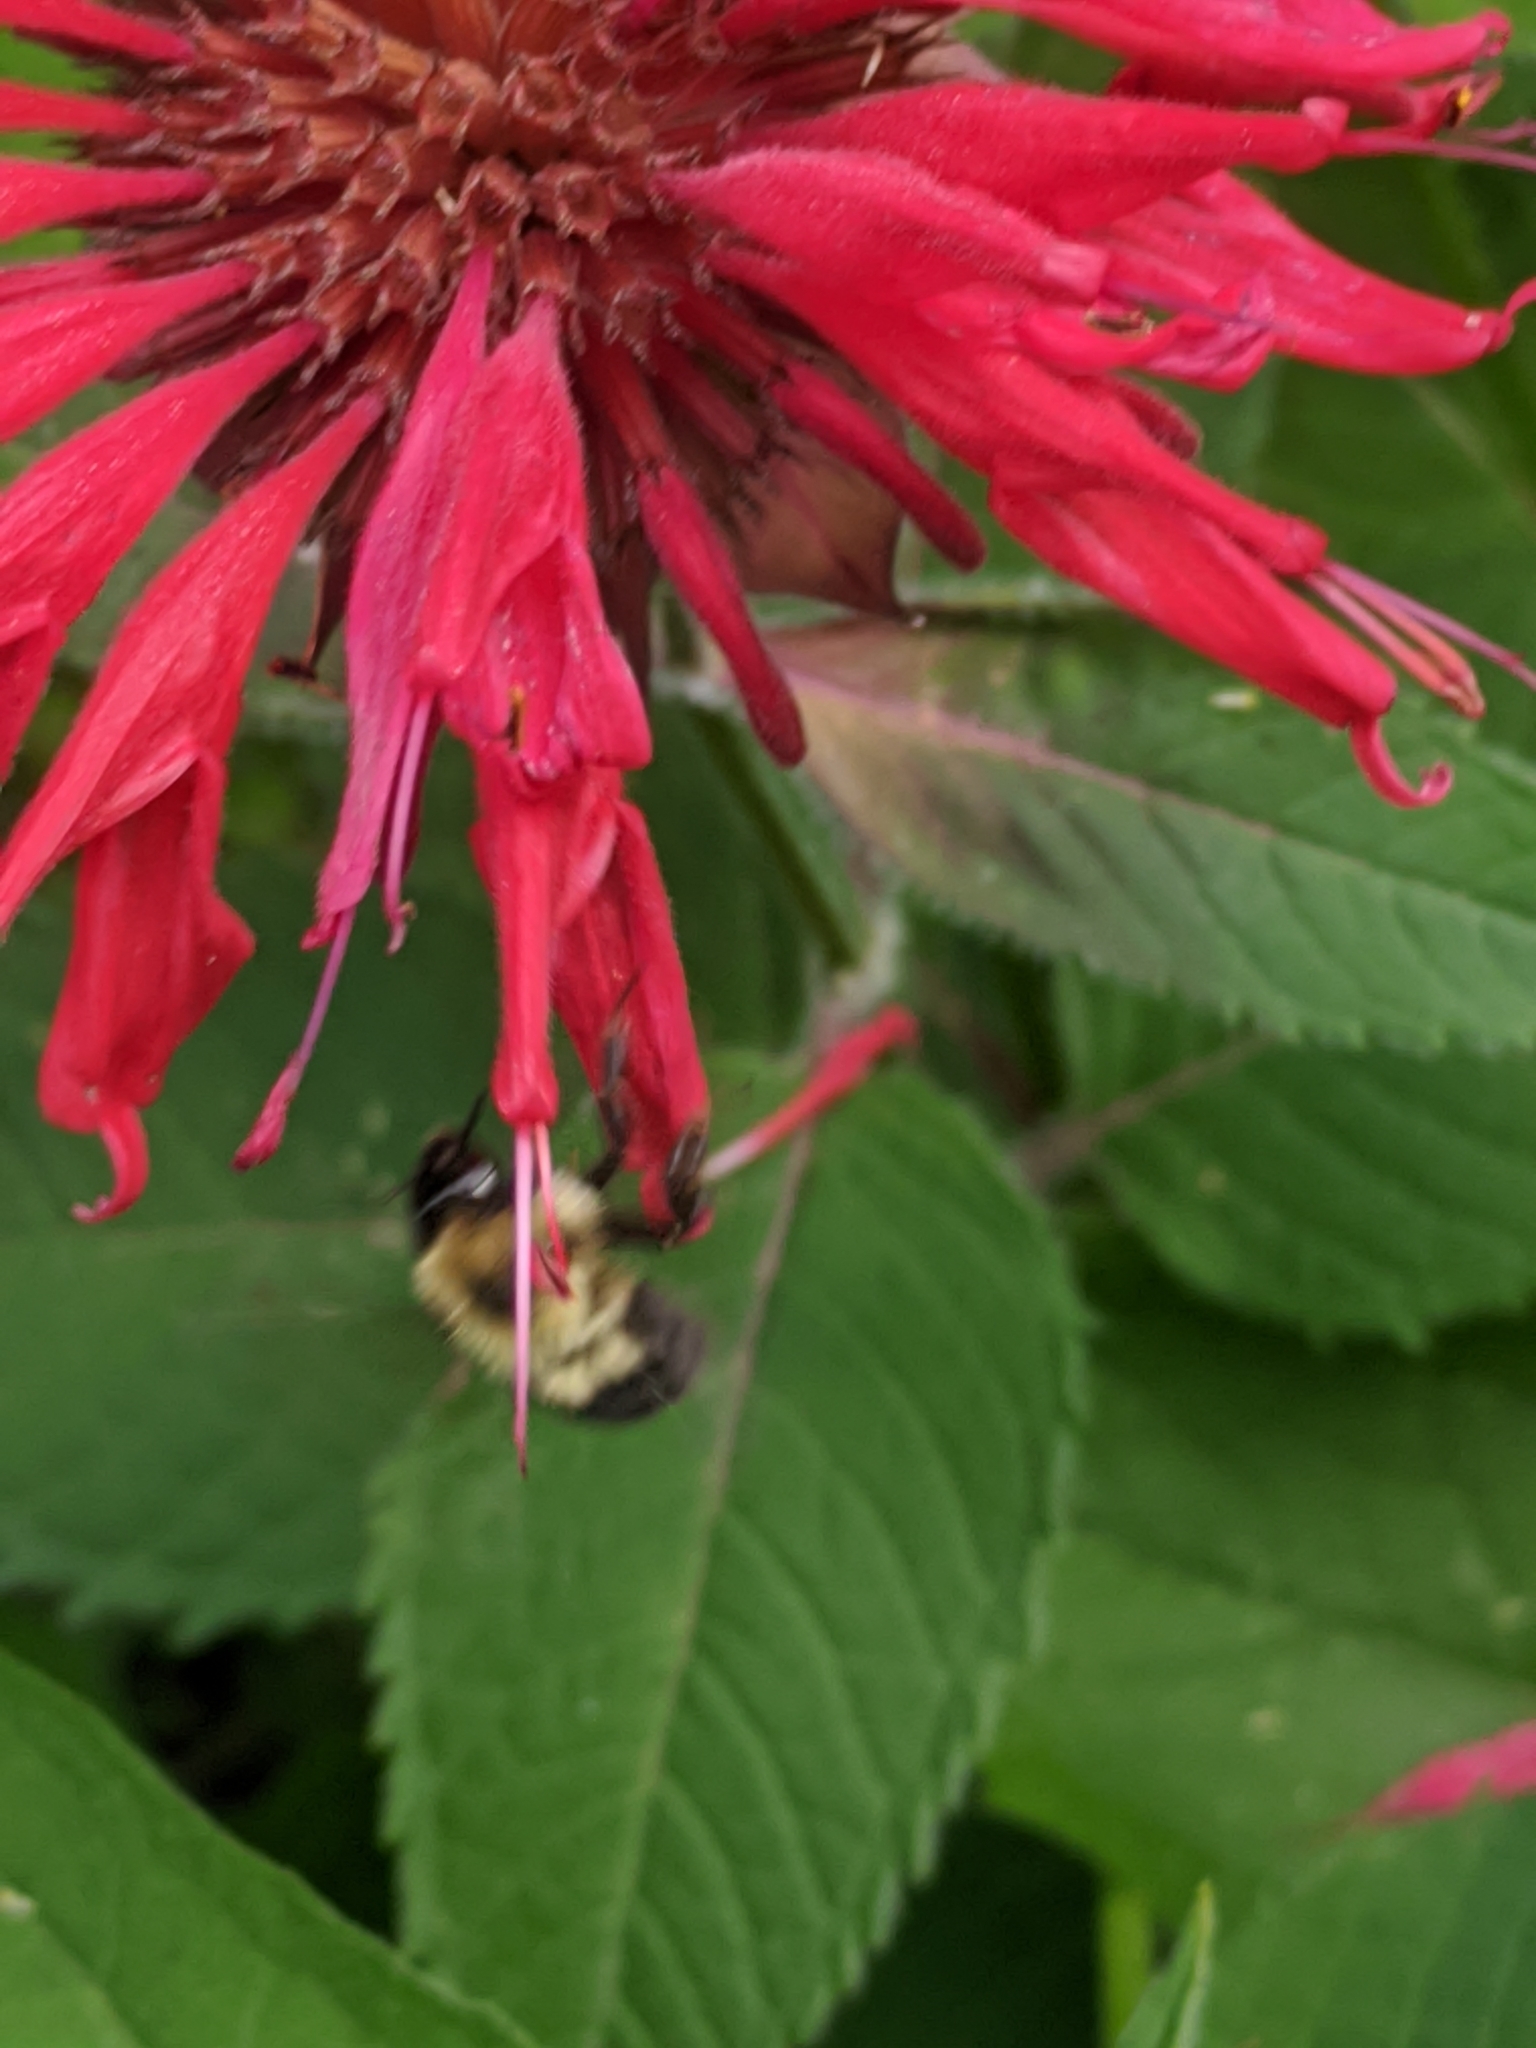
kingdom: Animalia
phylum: Arthropoda
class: Insecta
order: Hymenoptera
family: Apidae
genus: Bombus
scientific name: Bombus bimaculatus
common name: Two-spotted bumble bee
